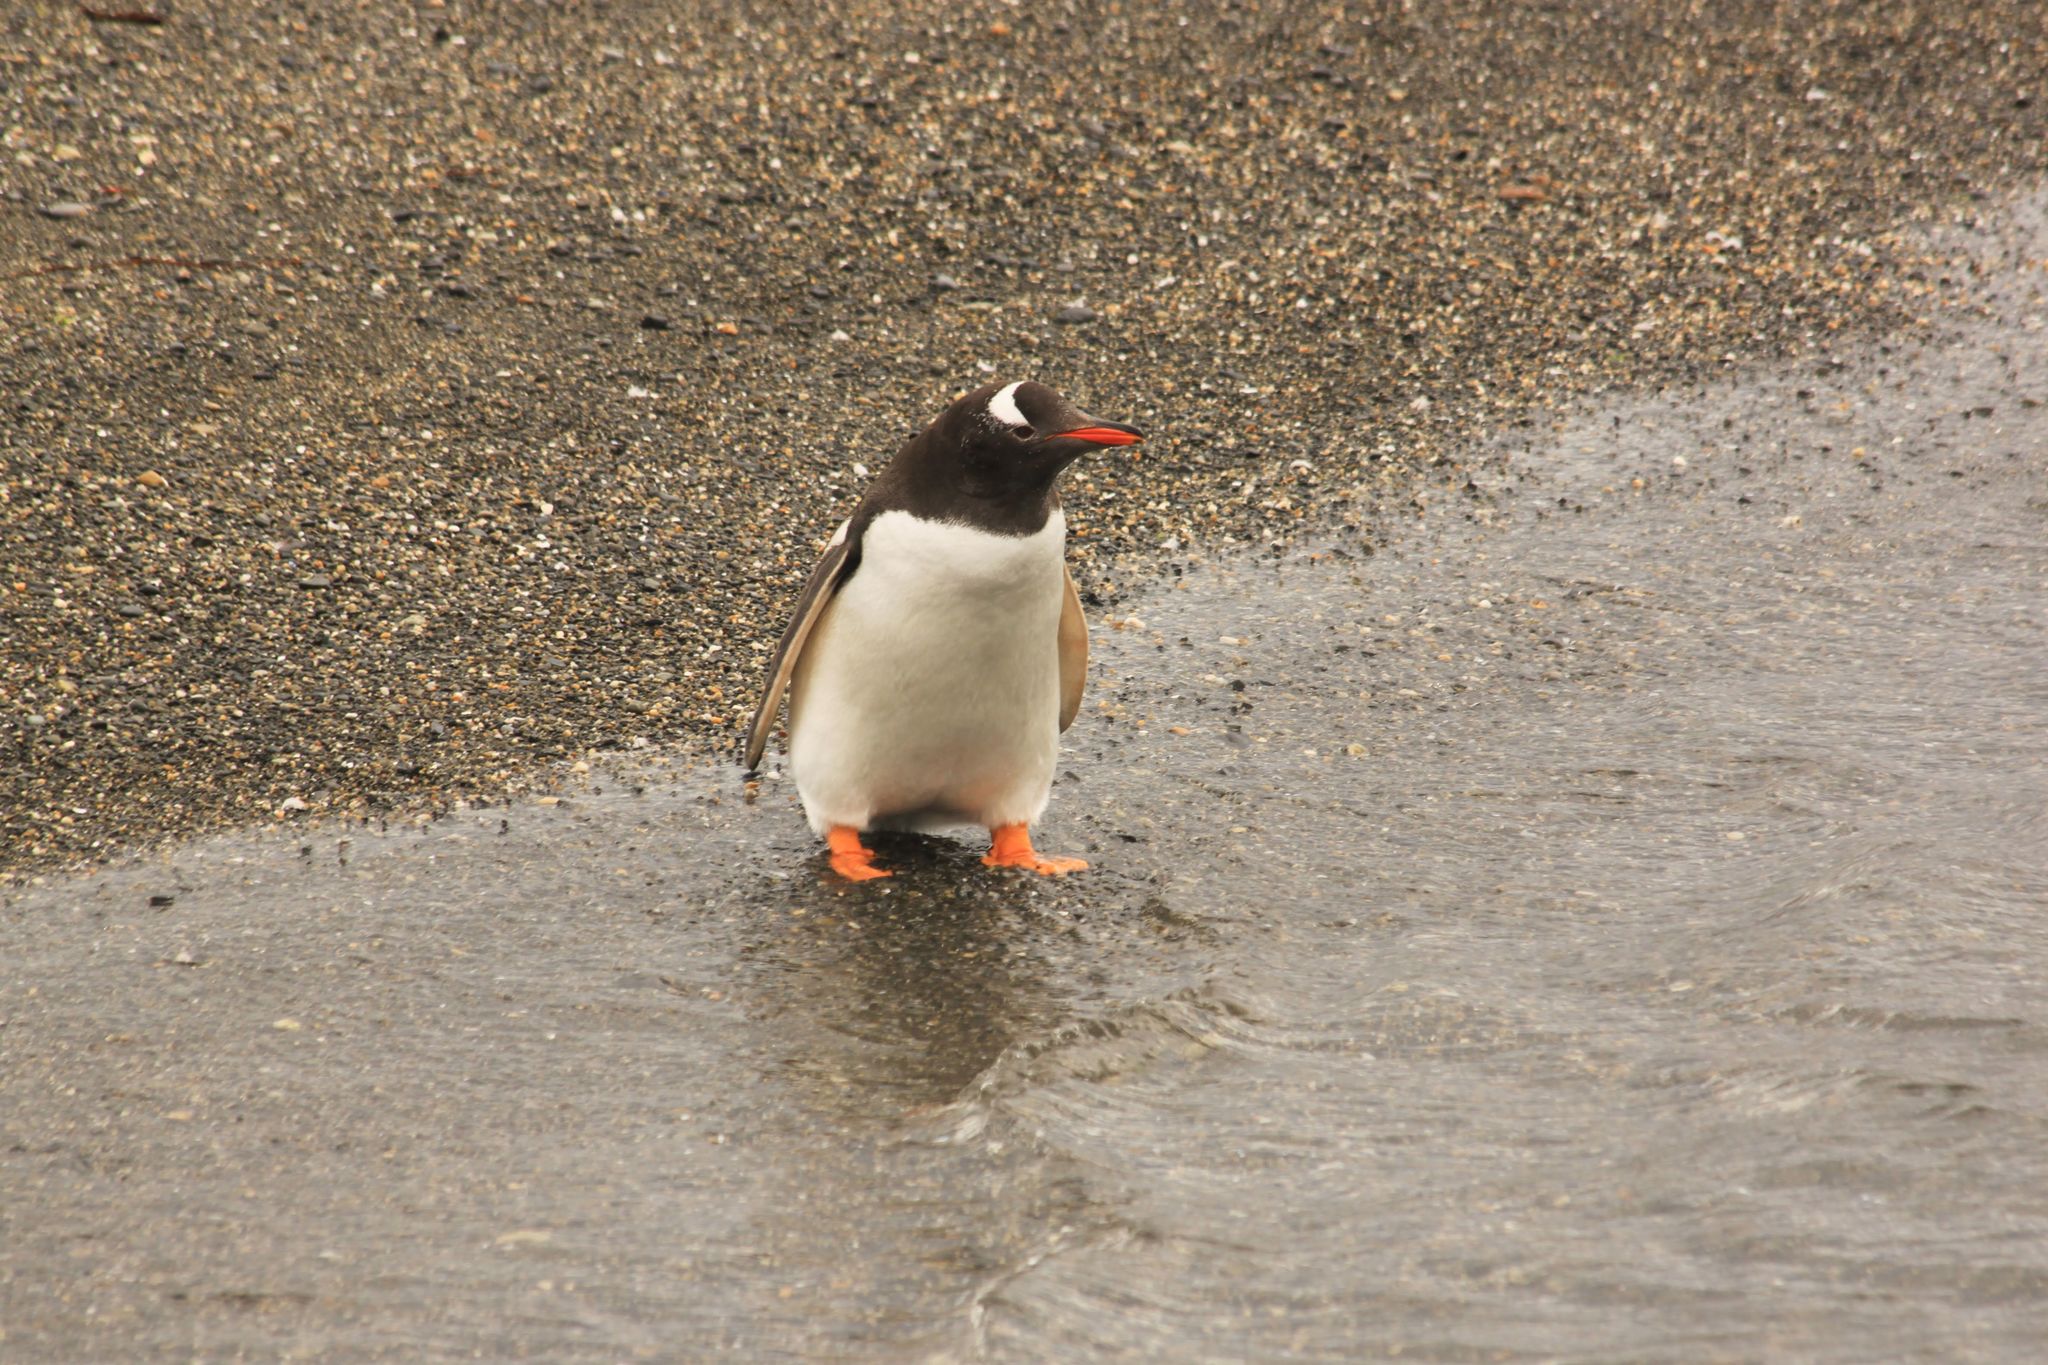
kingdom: Animalia
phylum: Chordata
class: Aves
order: Sphenisciformes
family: Spheniscidae
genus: Pygoscelis
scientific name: Pygoscelis papua
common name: Gentoo penguin
